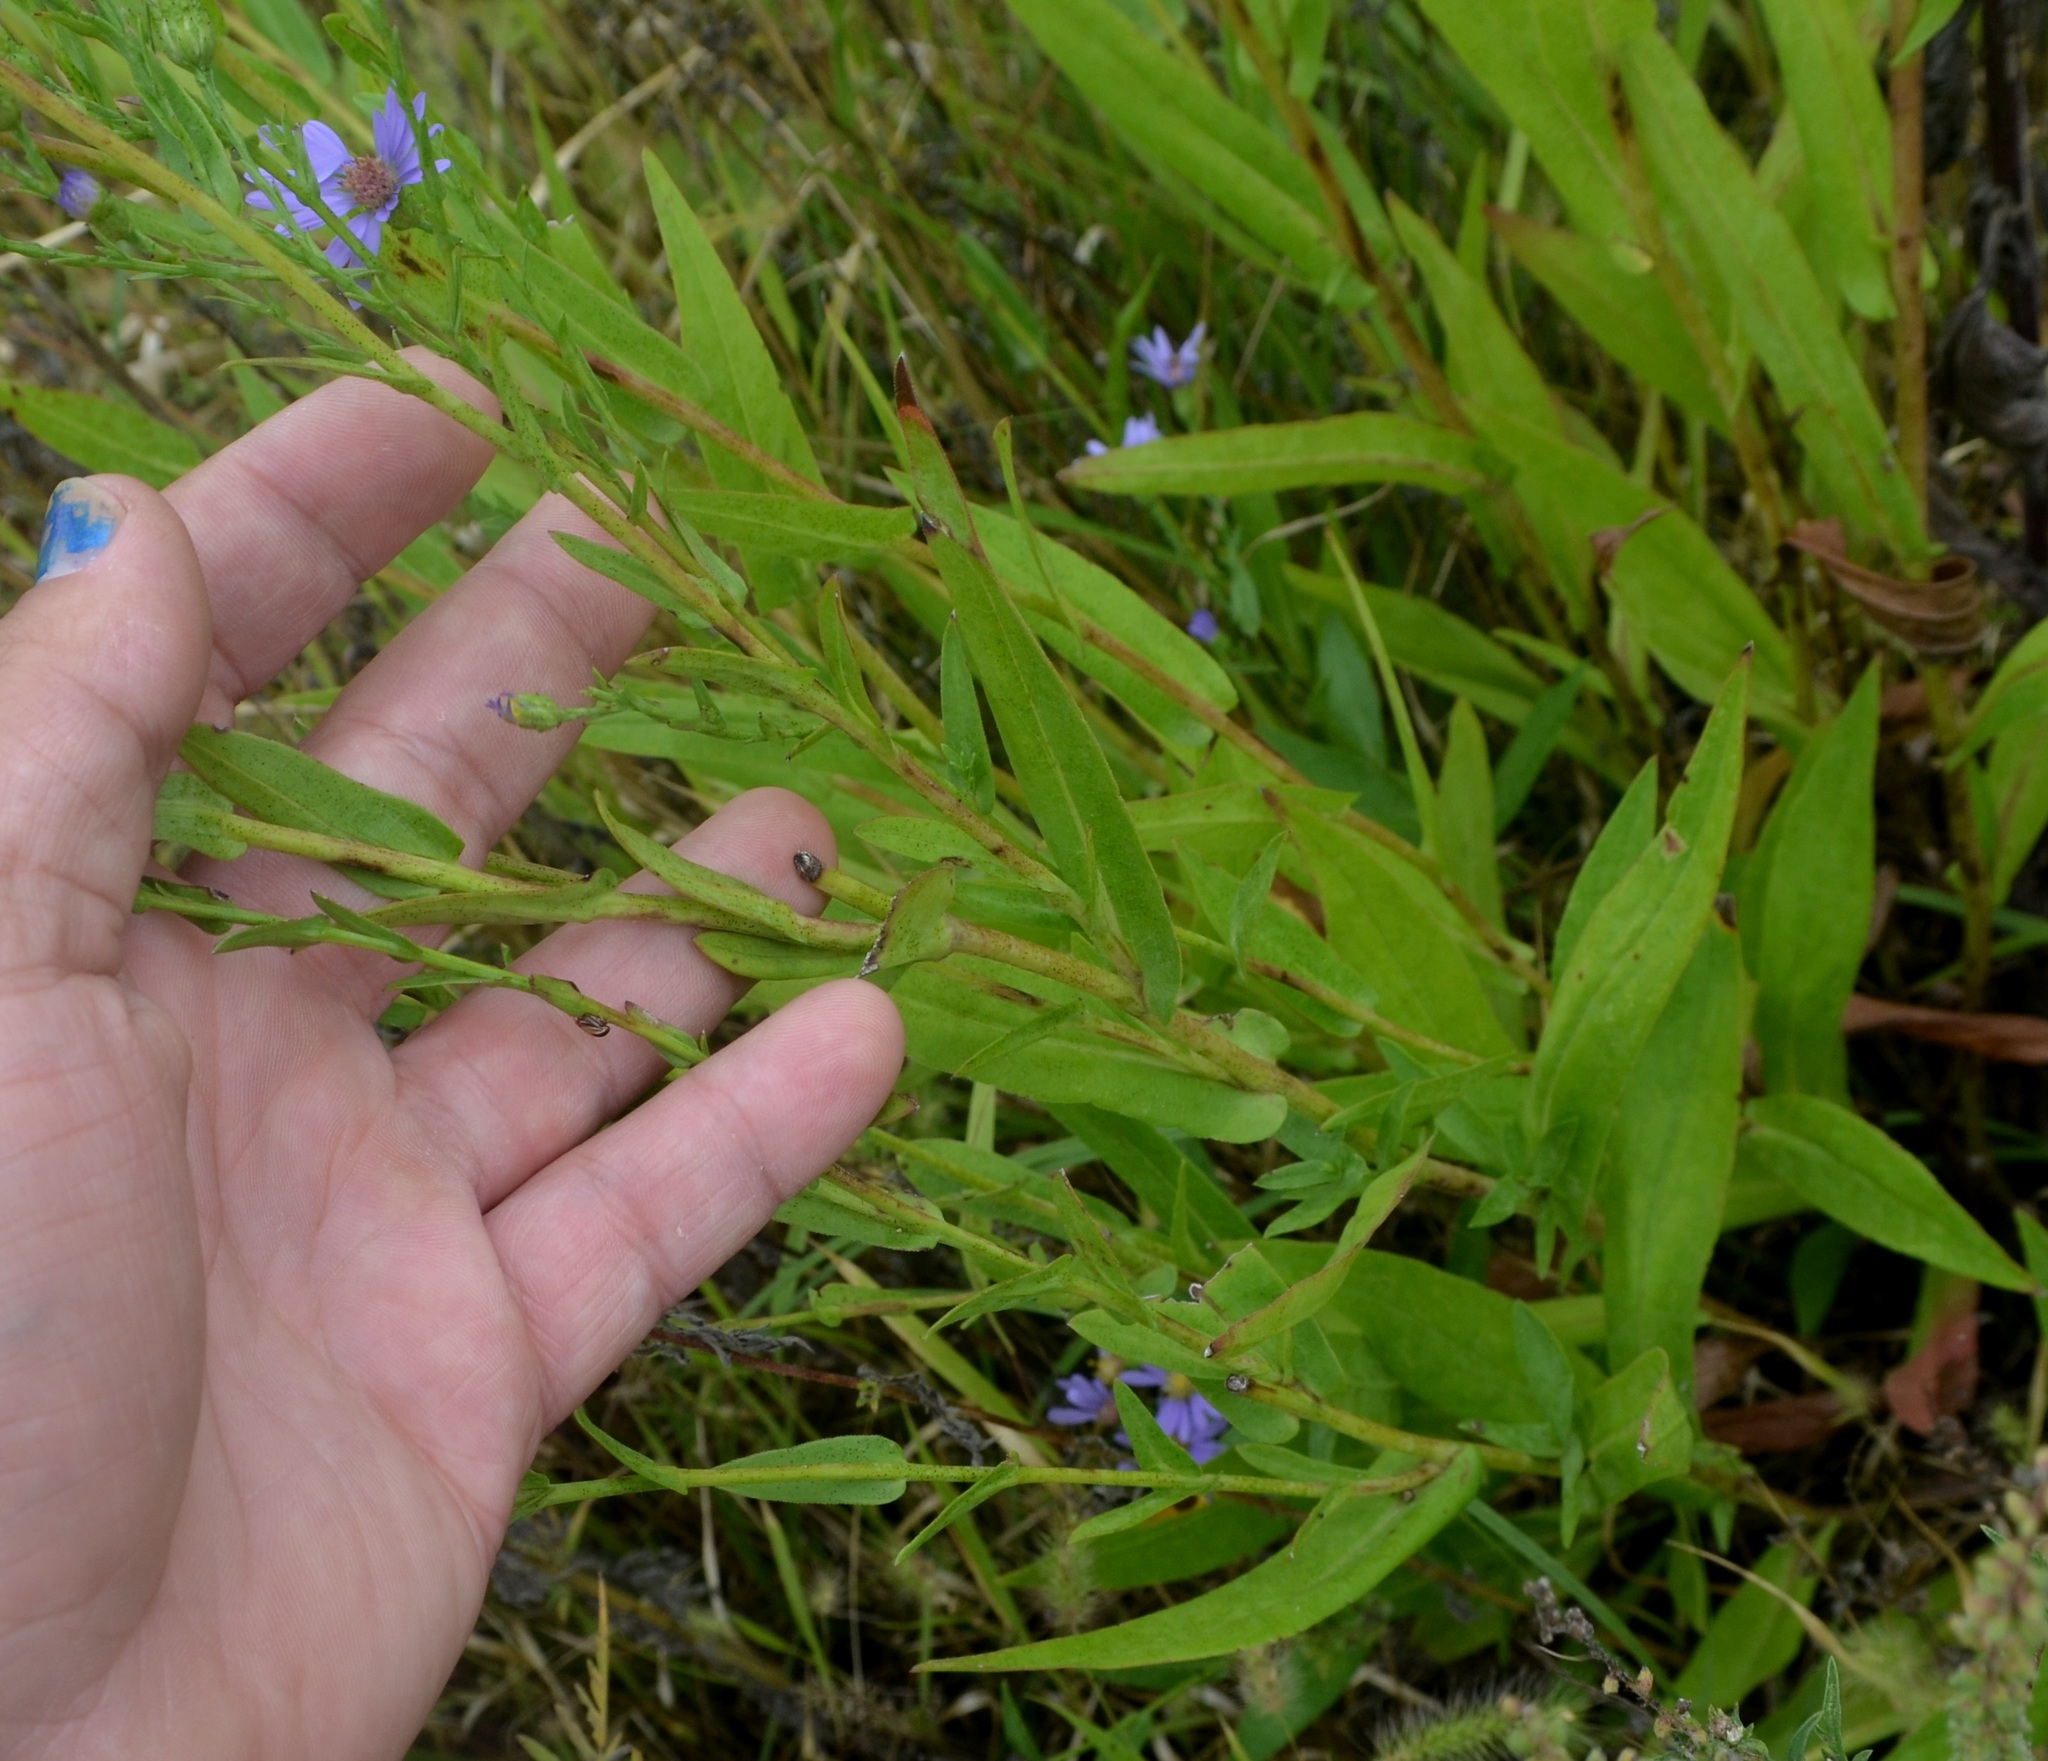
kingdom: Plantae
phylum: Tracheophyta
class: Magnoliopsida
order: Asterales
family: Asteraceae
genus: Symphyotrichum
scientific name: Symphyotrichum laeve
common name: Glaucous aster
